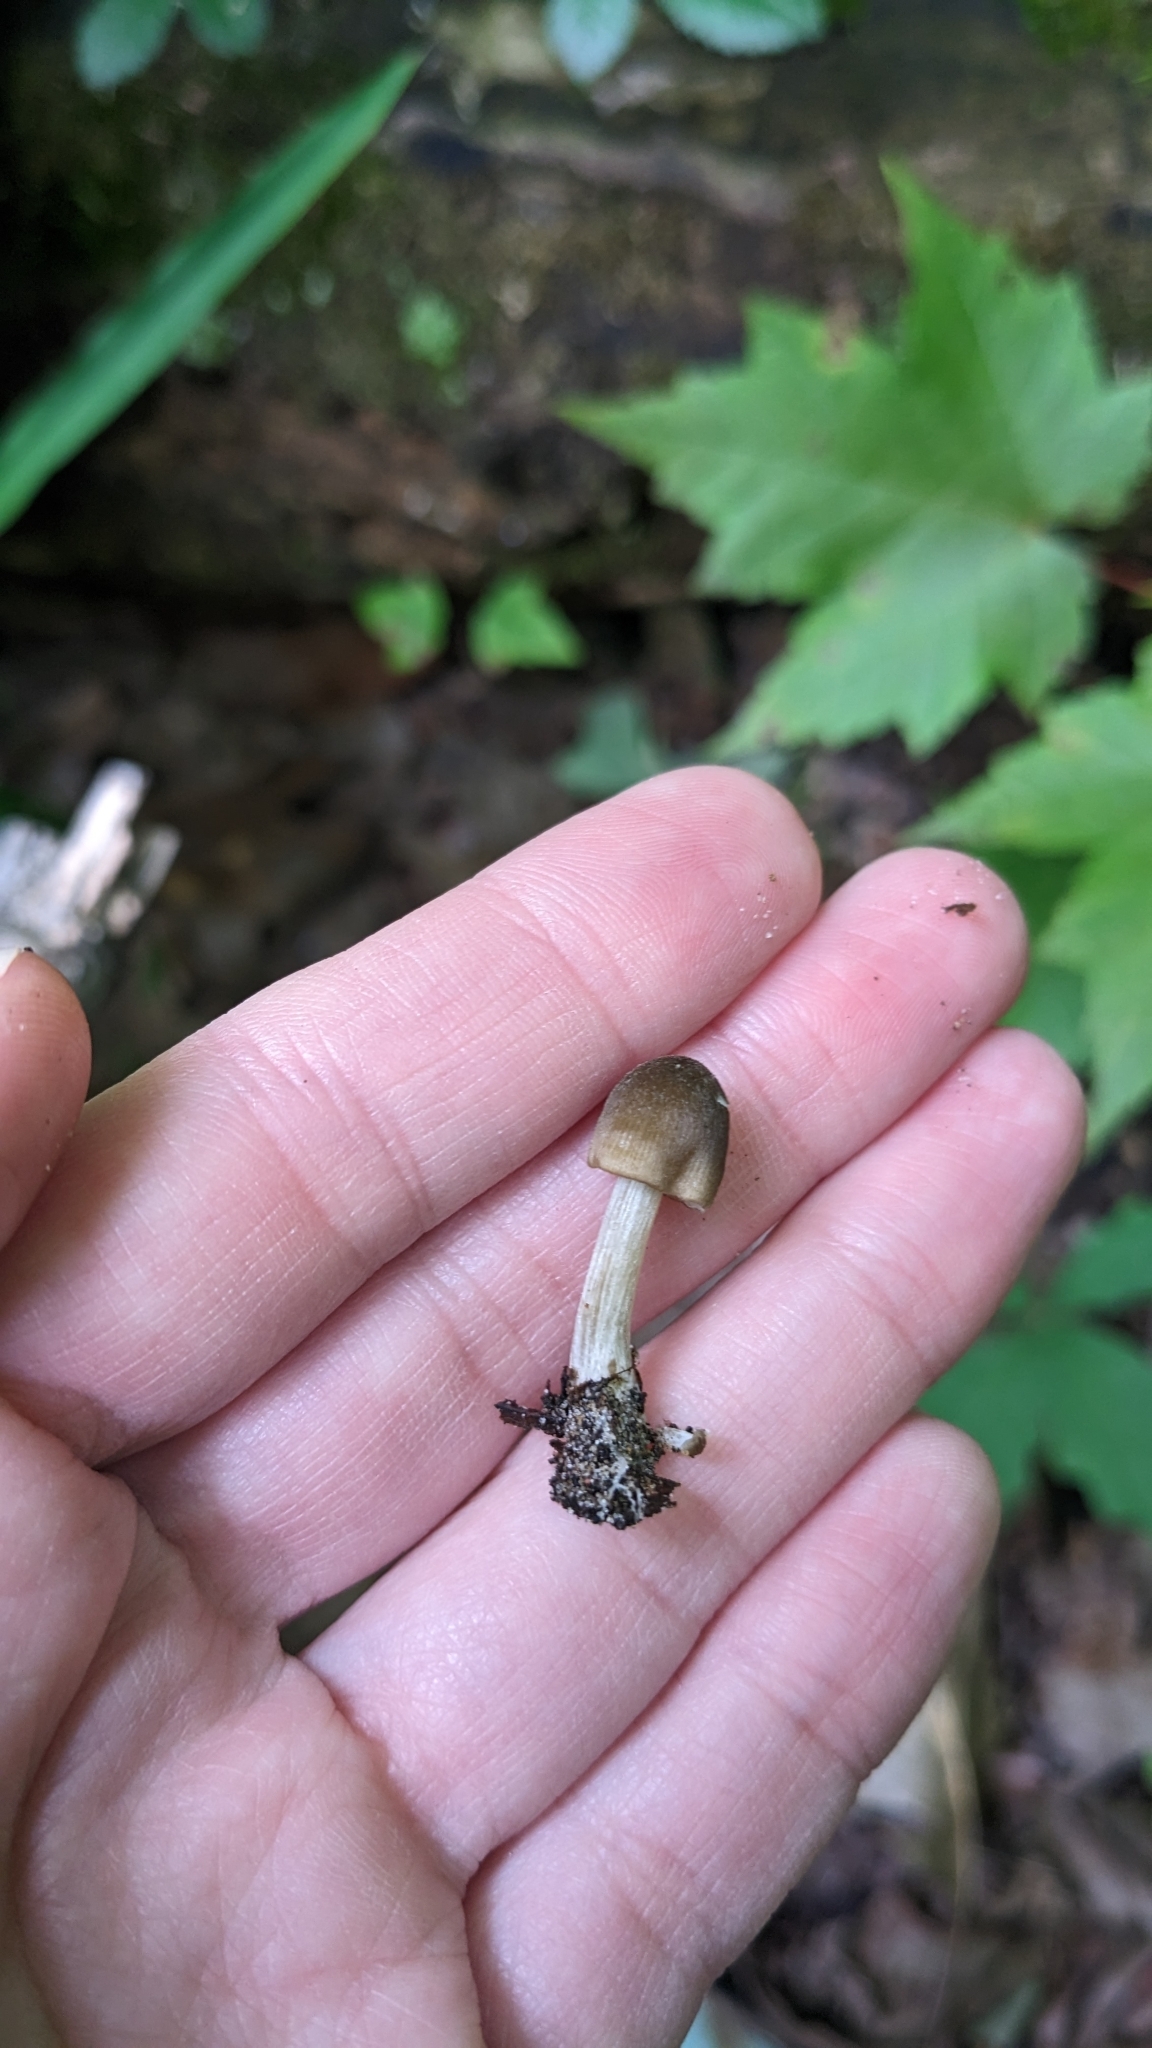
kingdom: Fungi
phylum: Basidiomycota
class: Agaricomycetes
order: Agaricales
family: Entolomataceae
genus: Entoloma
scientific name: Entoloma conferendum
